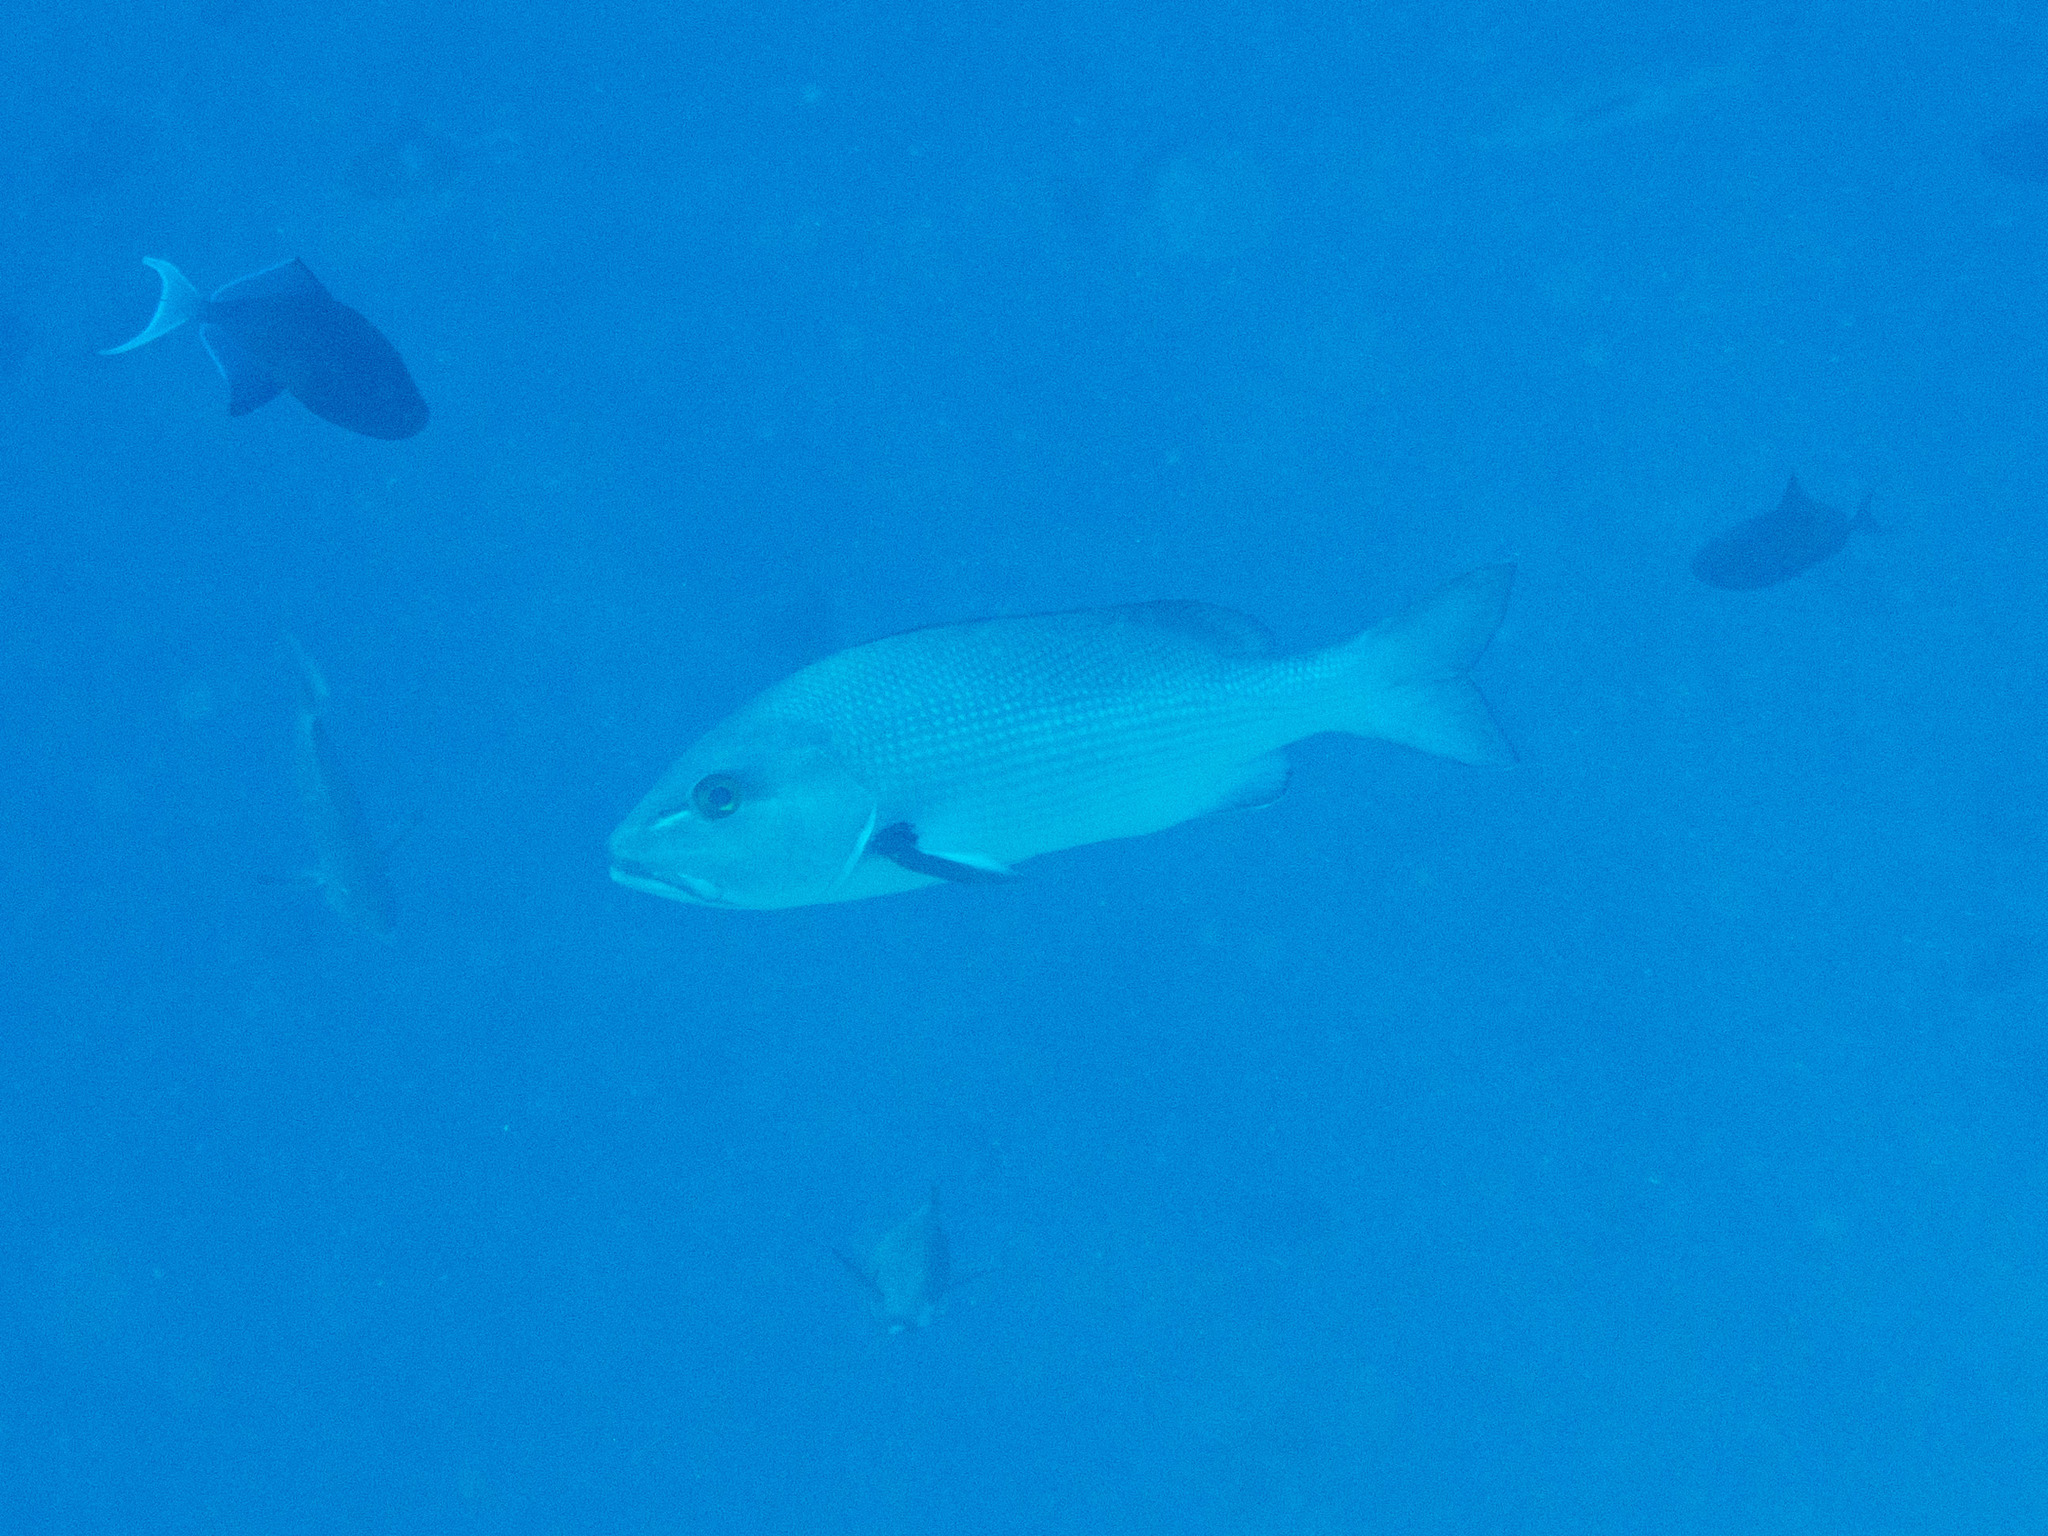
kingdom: Animalia
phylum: Chordata
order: Perciformes
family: Lutjanidae
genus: Lutjanus
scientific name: Lutjanus bohar
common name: Red bass
